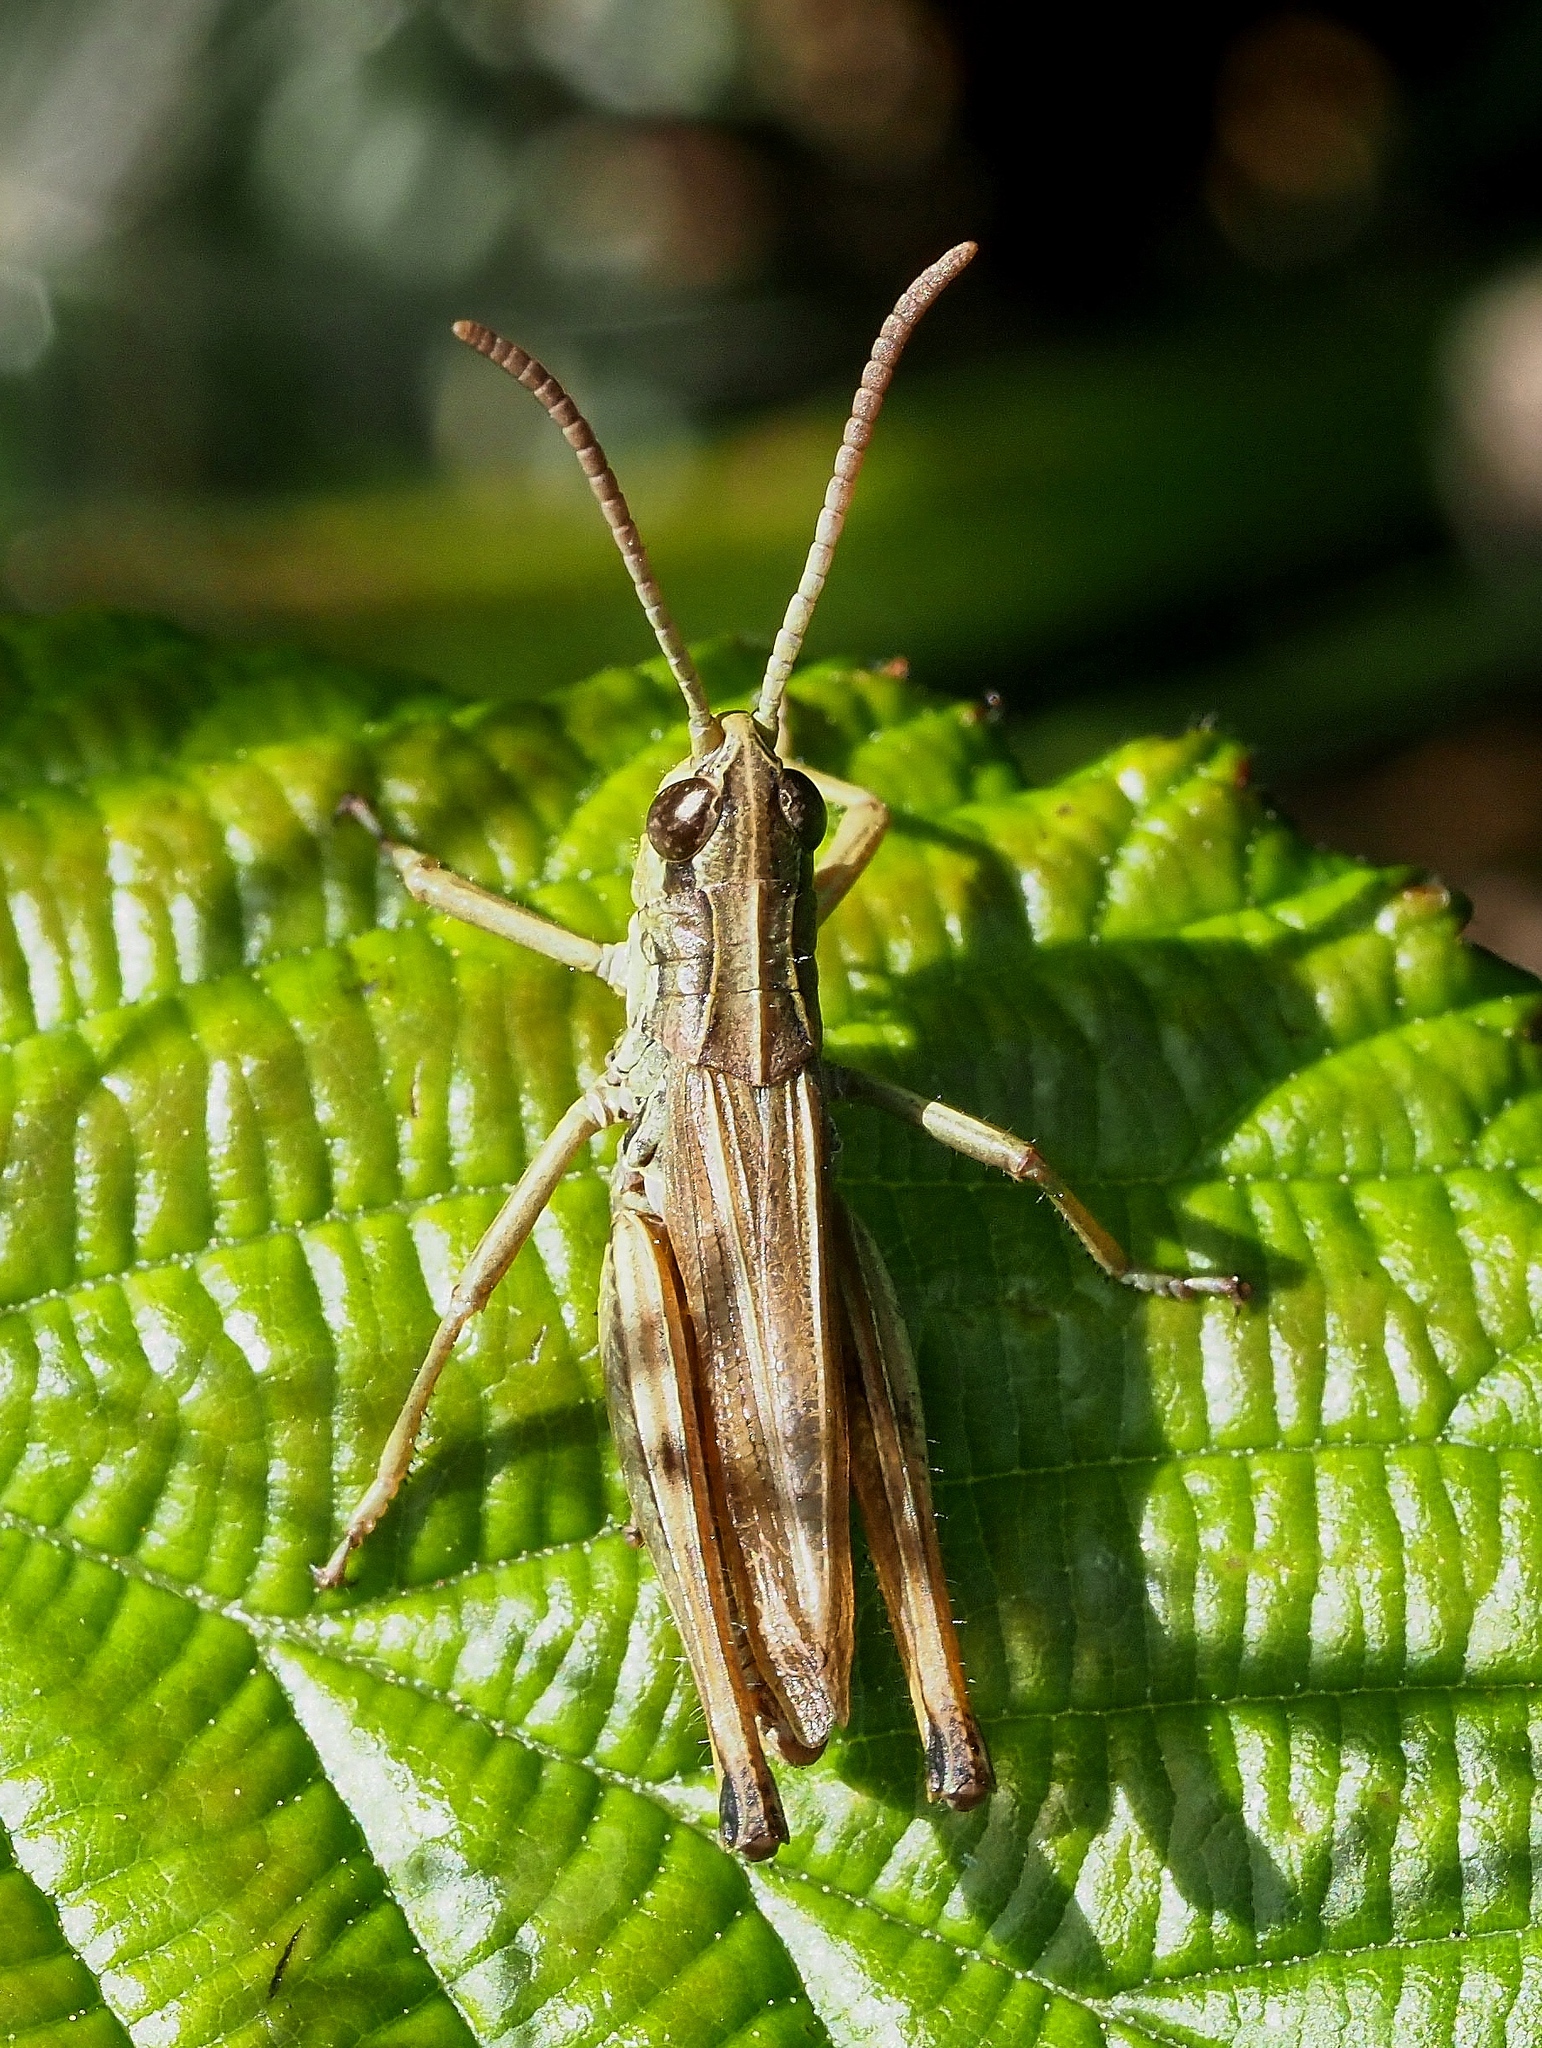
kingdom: Animalia
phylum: Arthropoda
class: Insecta
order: Orthoptera
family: Acrididae
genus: Pseudochorthippus
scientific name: Pseudochorthippus parallelus
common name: Meadow grasshopper
